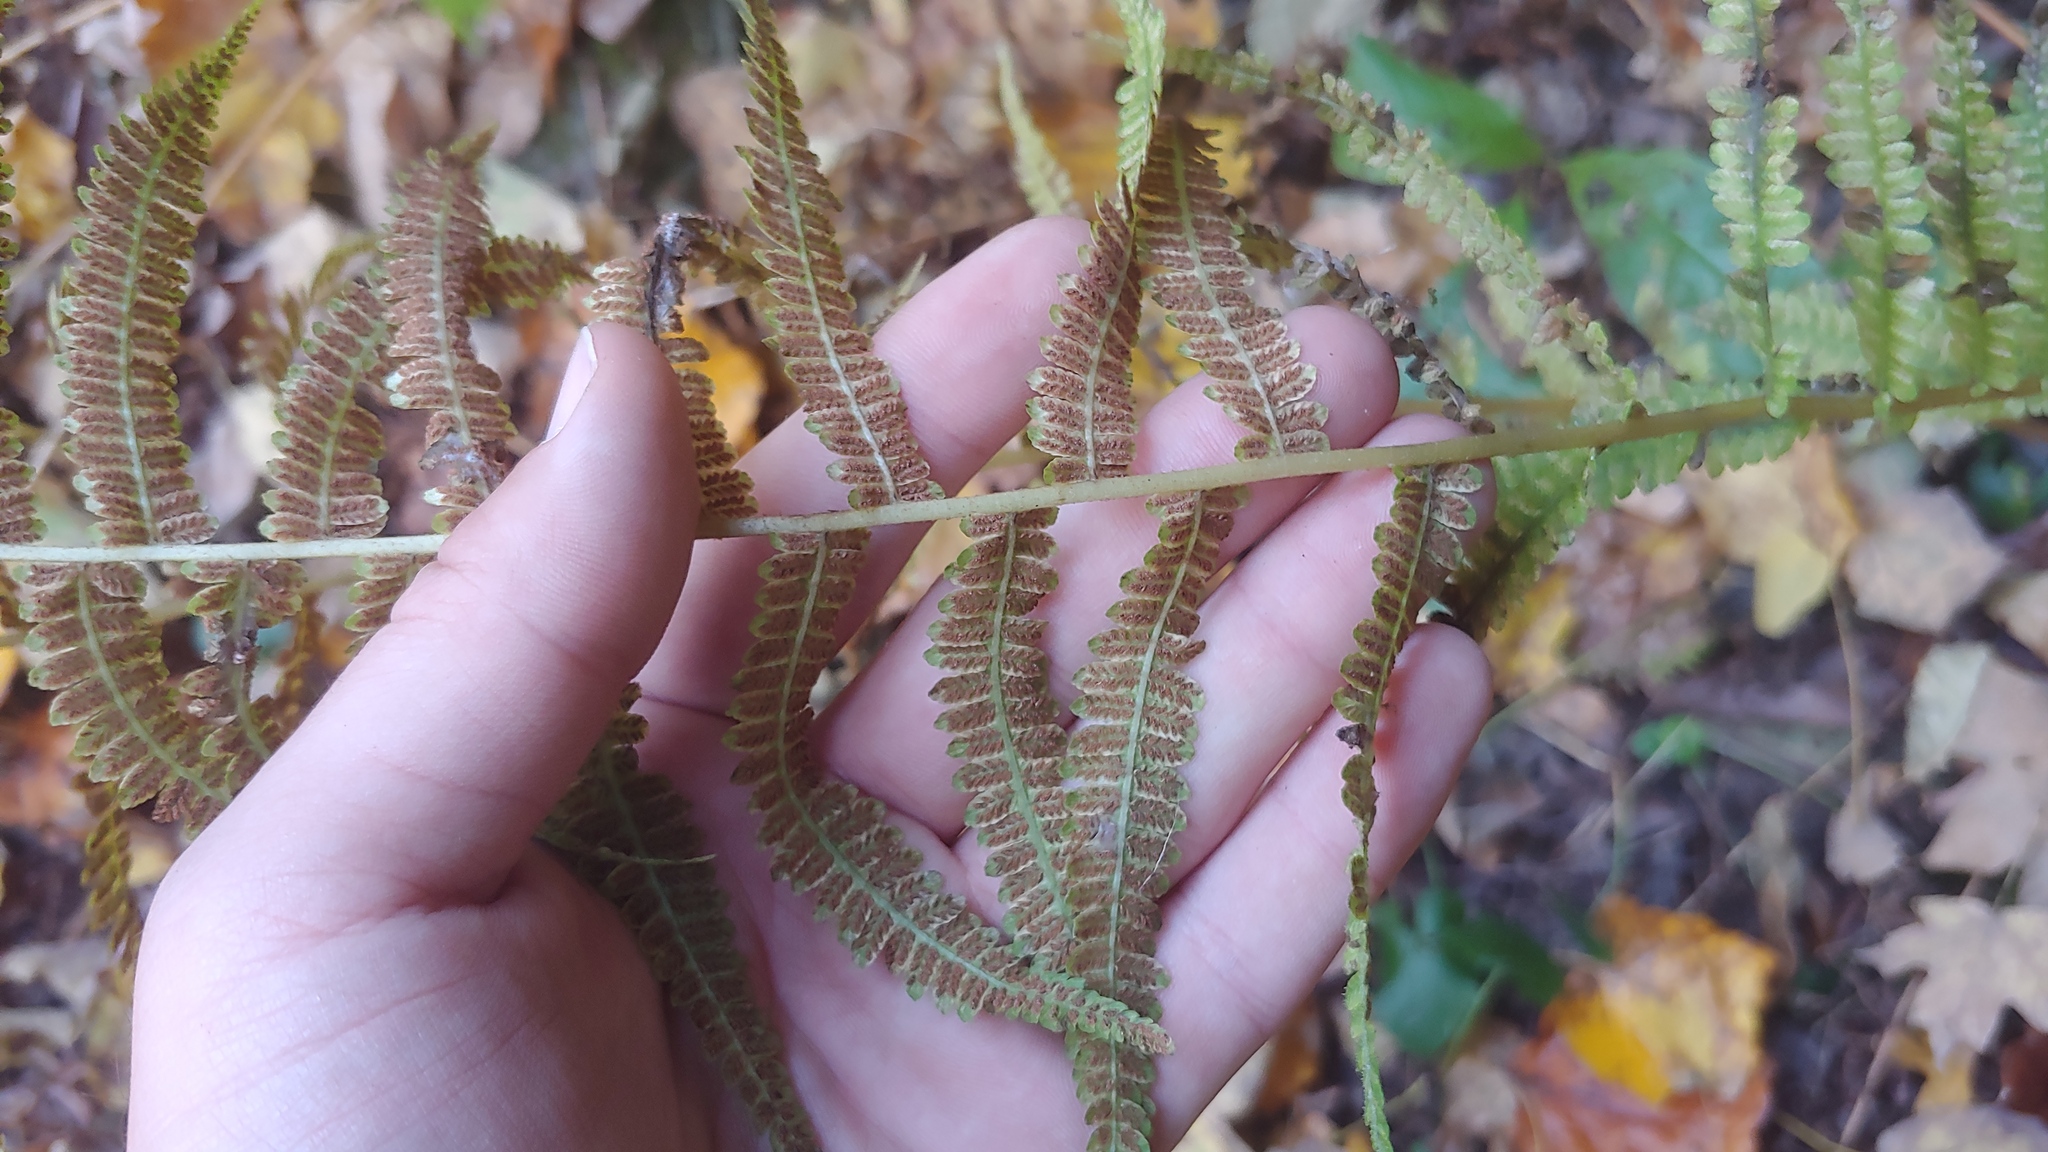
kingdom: Plantae
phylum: Tracheophyta
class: Polypodiopsida
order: Polypodiales
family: Athyriaceae
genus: Deparia
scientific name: Deparia acrostichoides
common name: Silver false spleenwort
